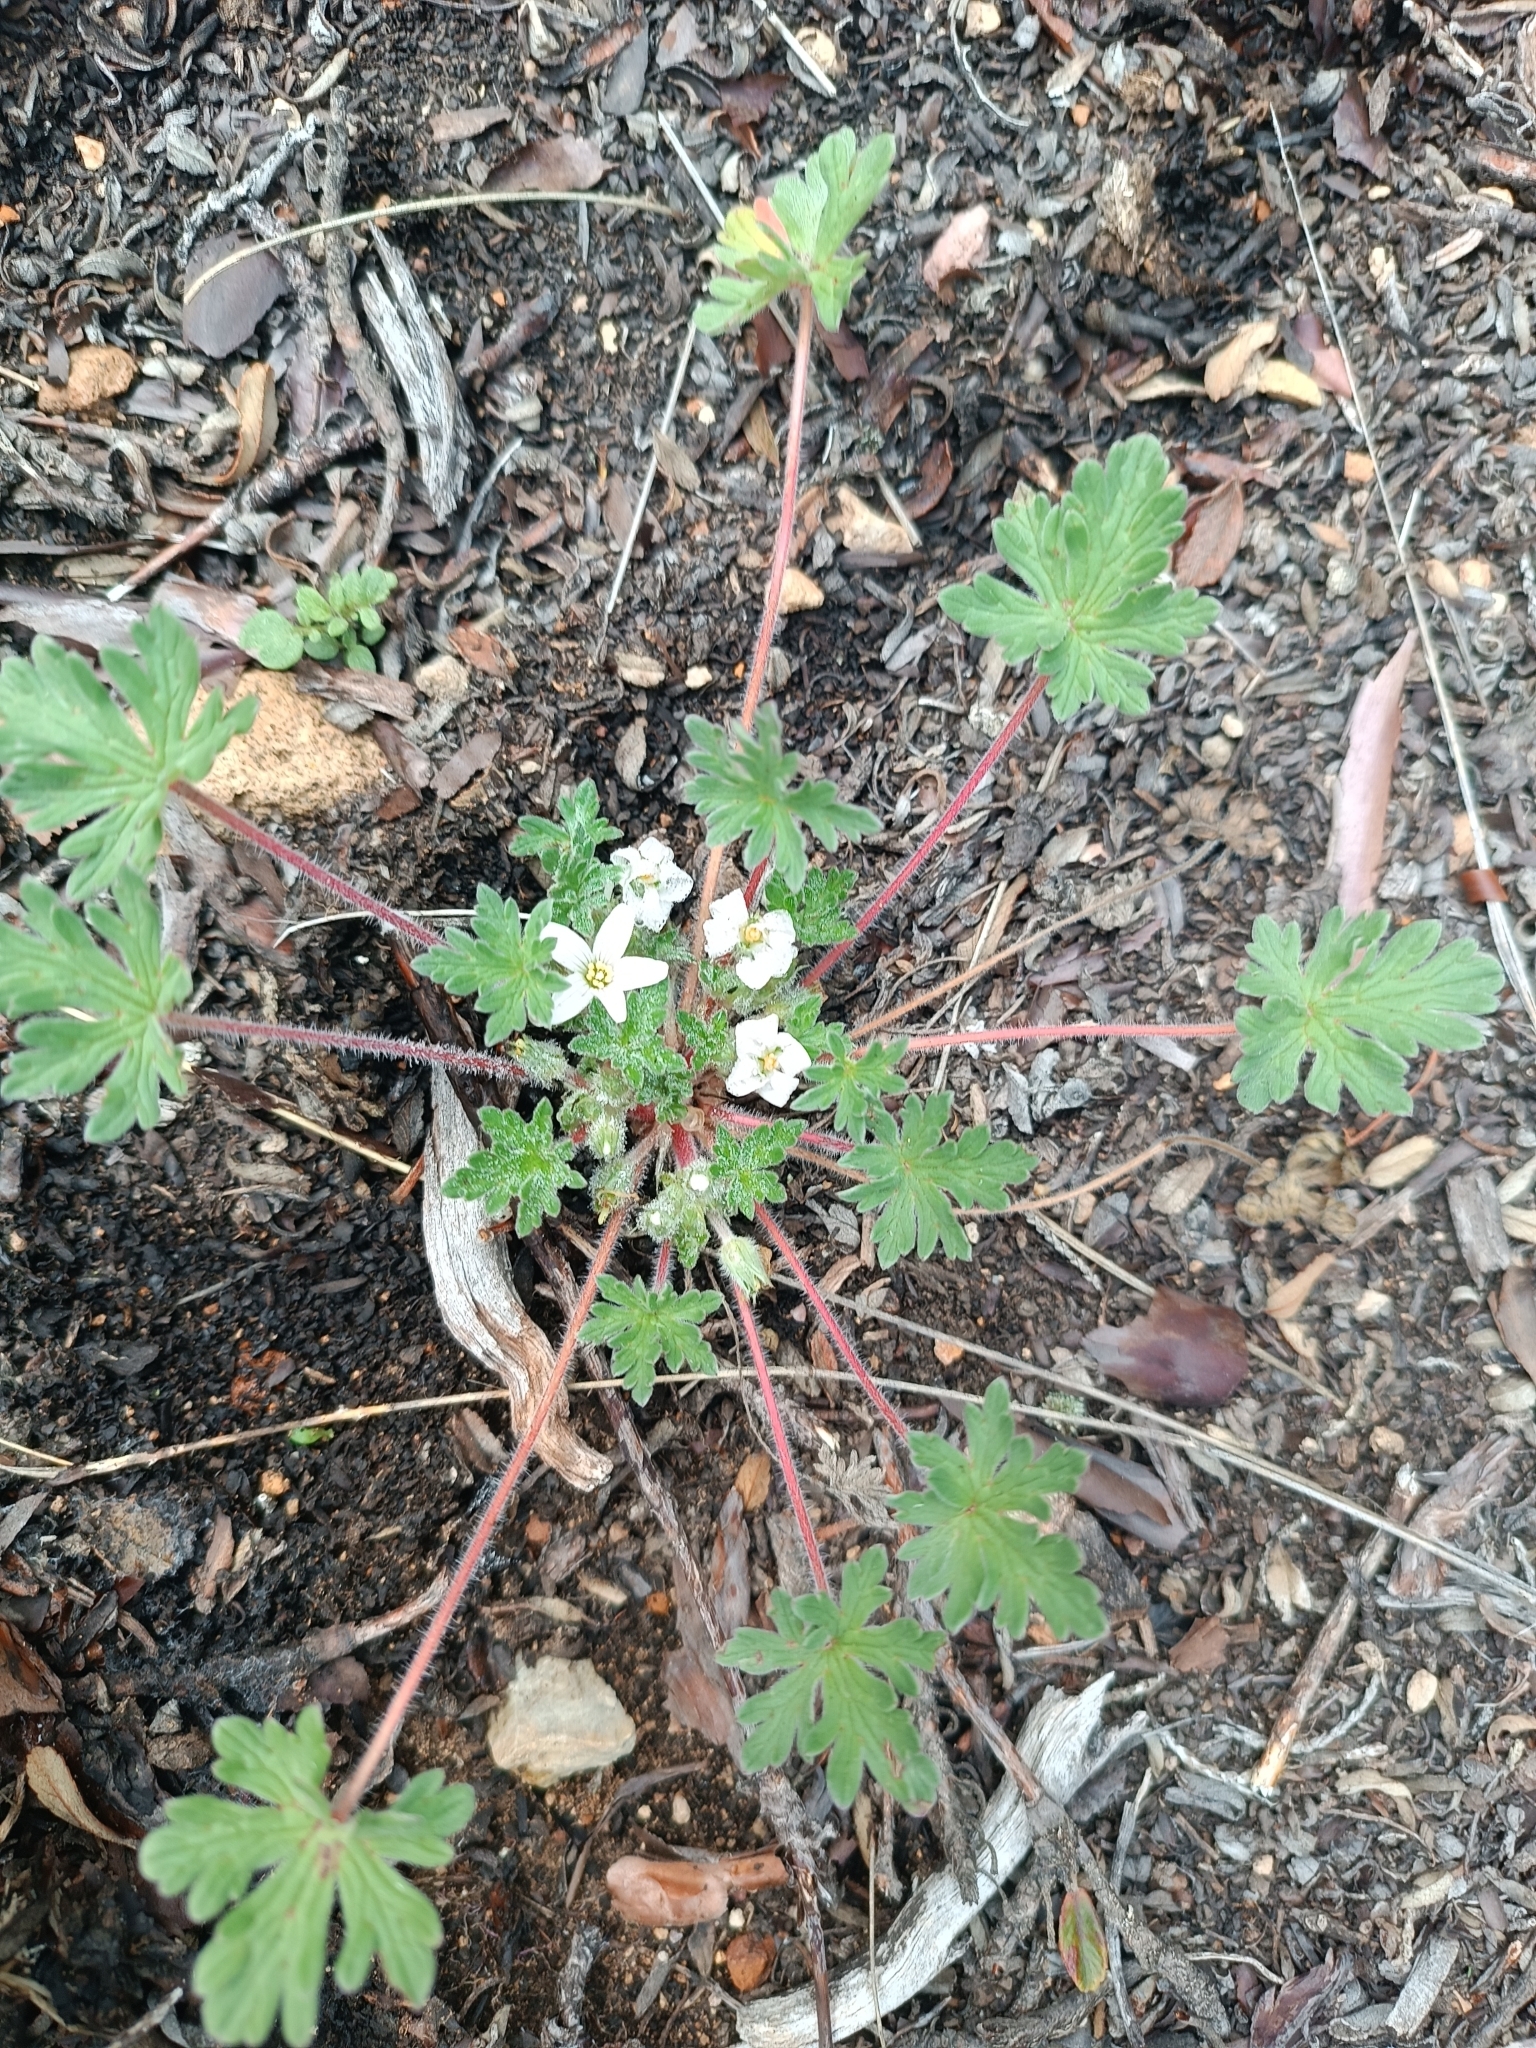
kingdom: Plantae
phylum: Tracheophyta
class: Magnoliopsida
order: Geraniales
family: Geraniaceae
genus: Geranium
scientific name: Geranium sessiliflorum
